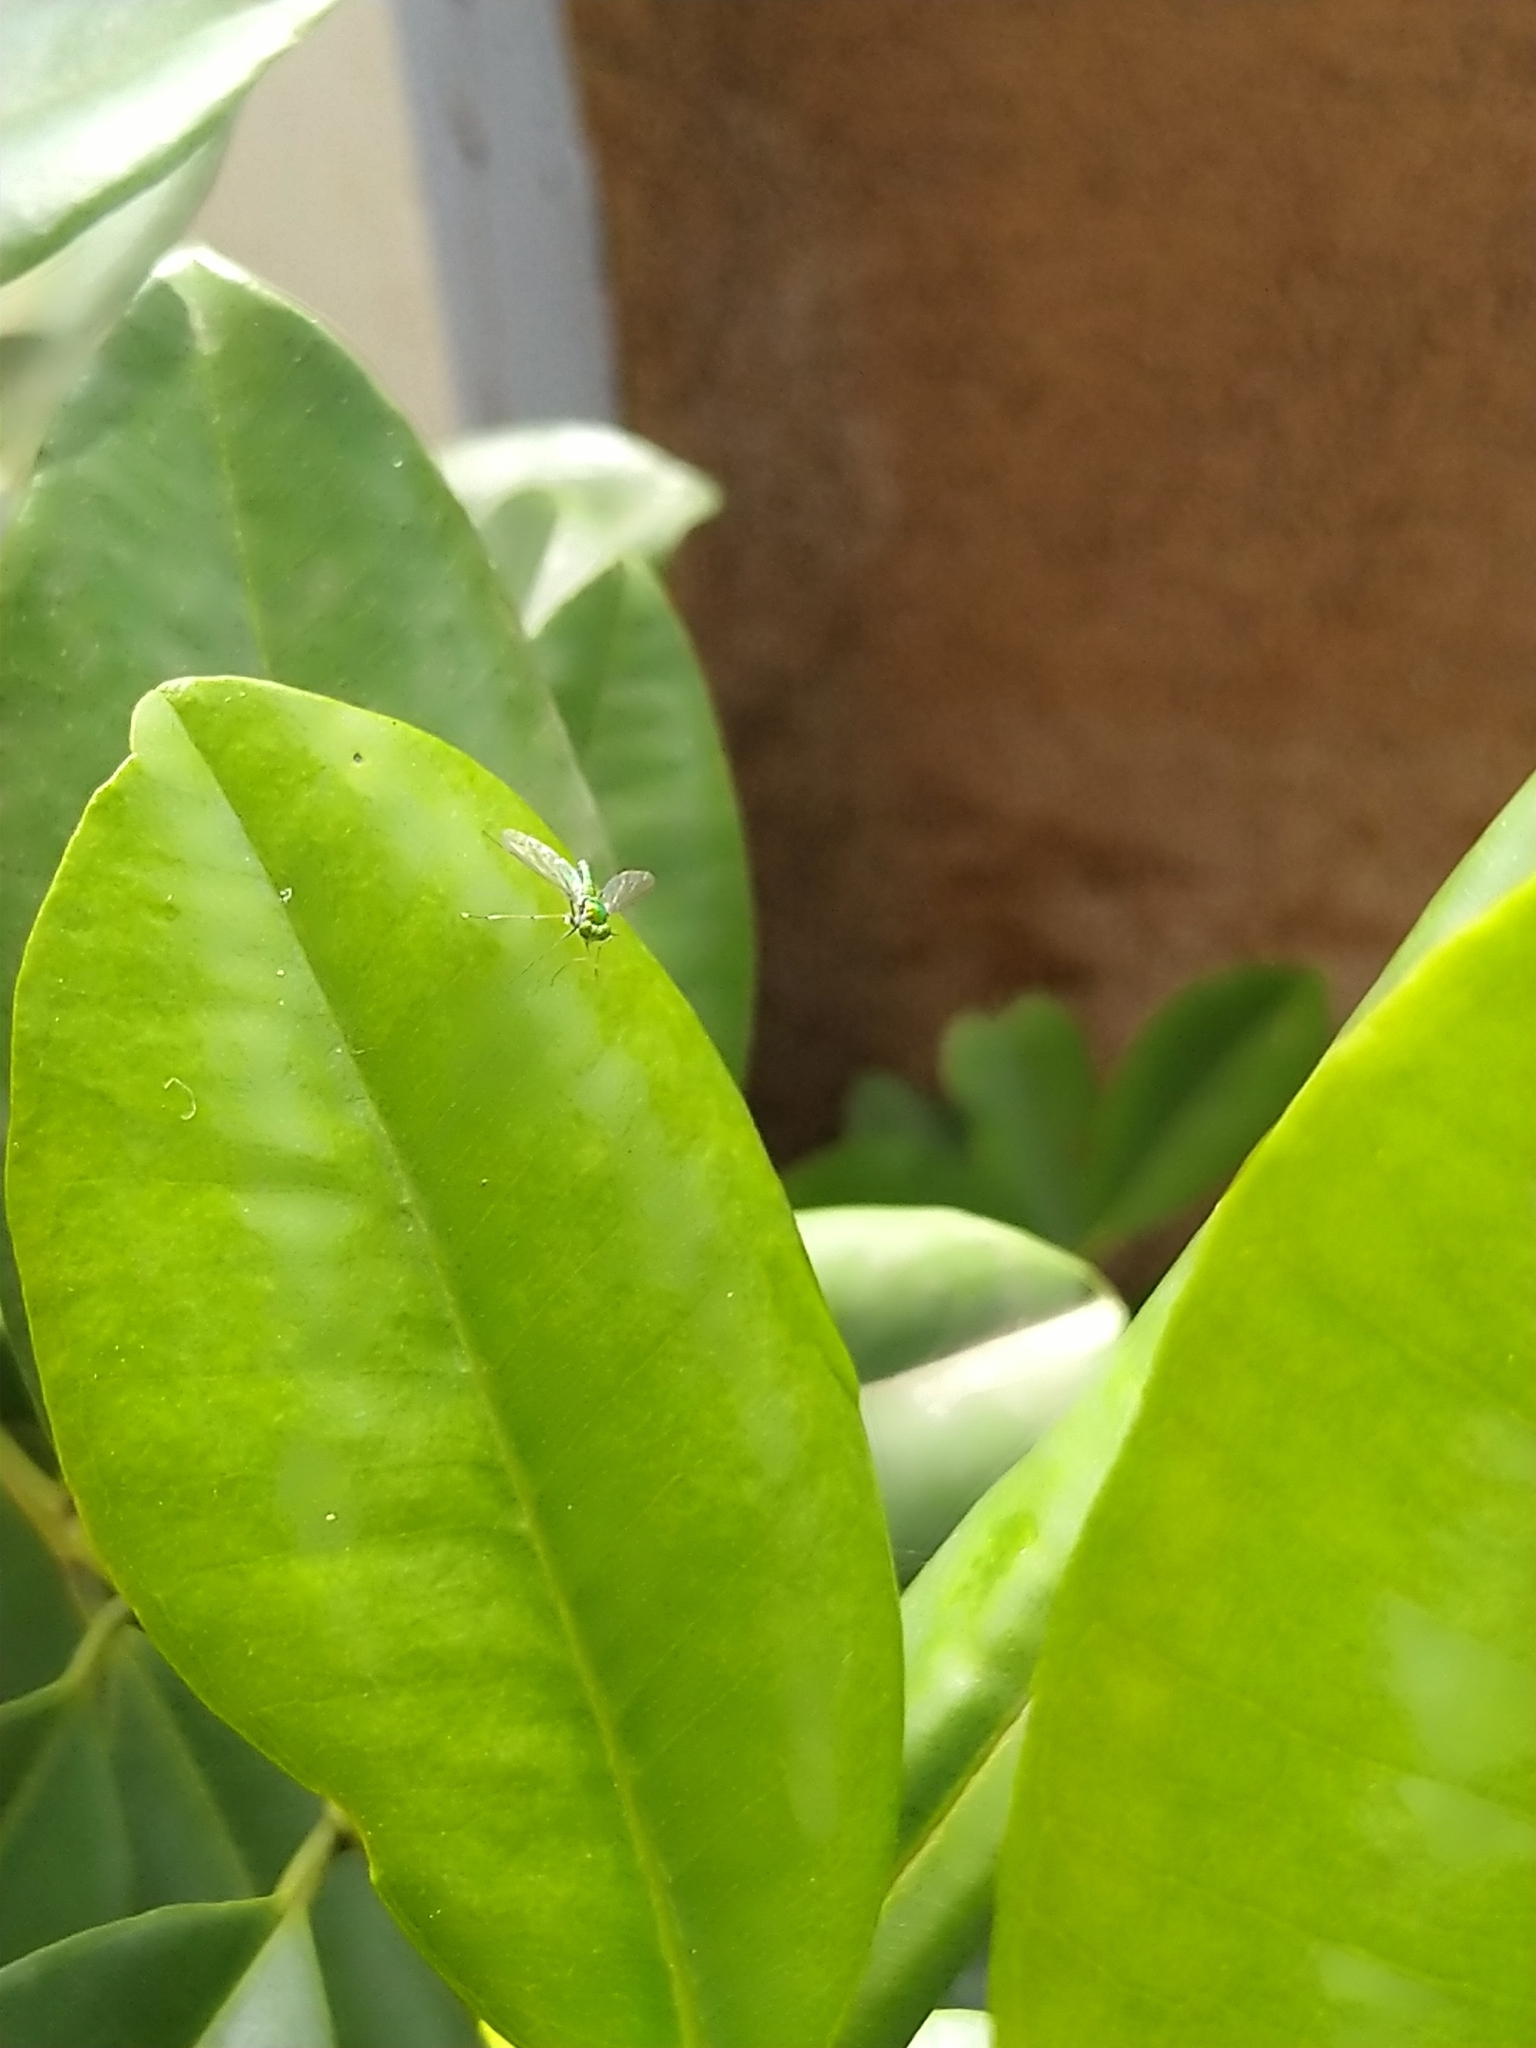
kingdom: Animalia
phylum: Arthropoda
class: Insecta
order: Diptera
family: Dolichopodidae
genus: Chrysosoma
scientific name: Chrysosoma leucopogon
